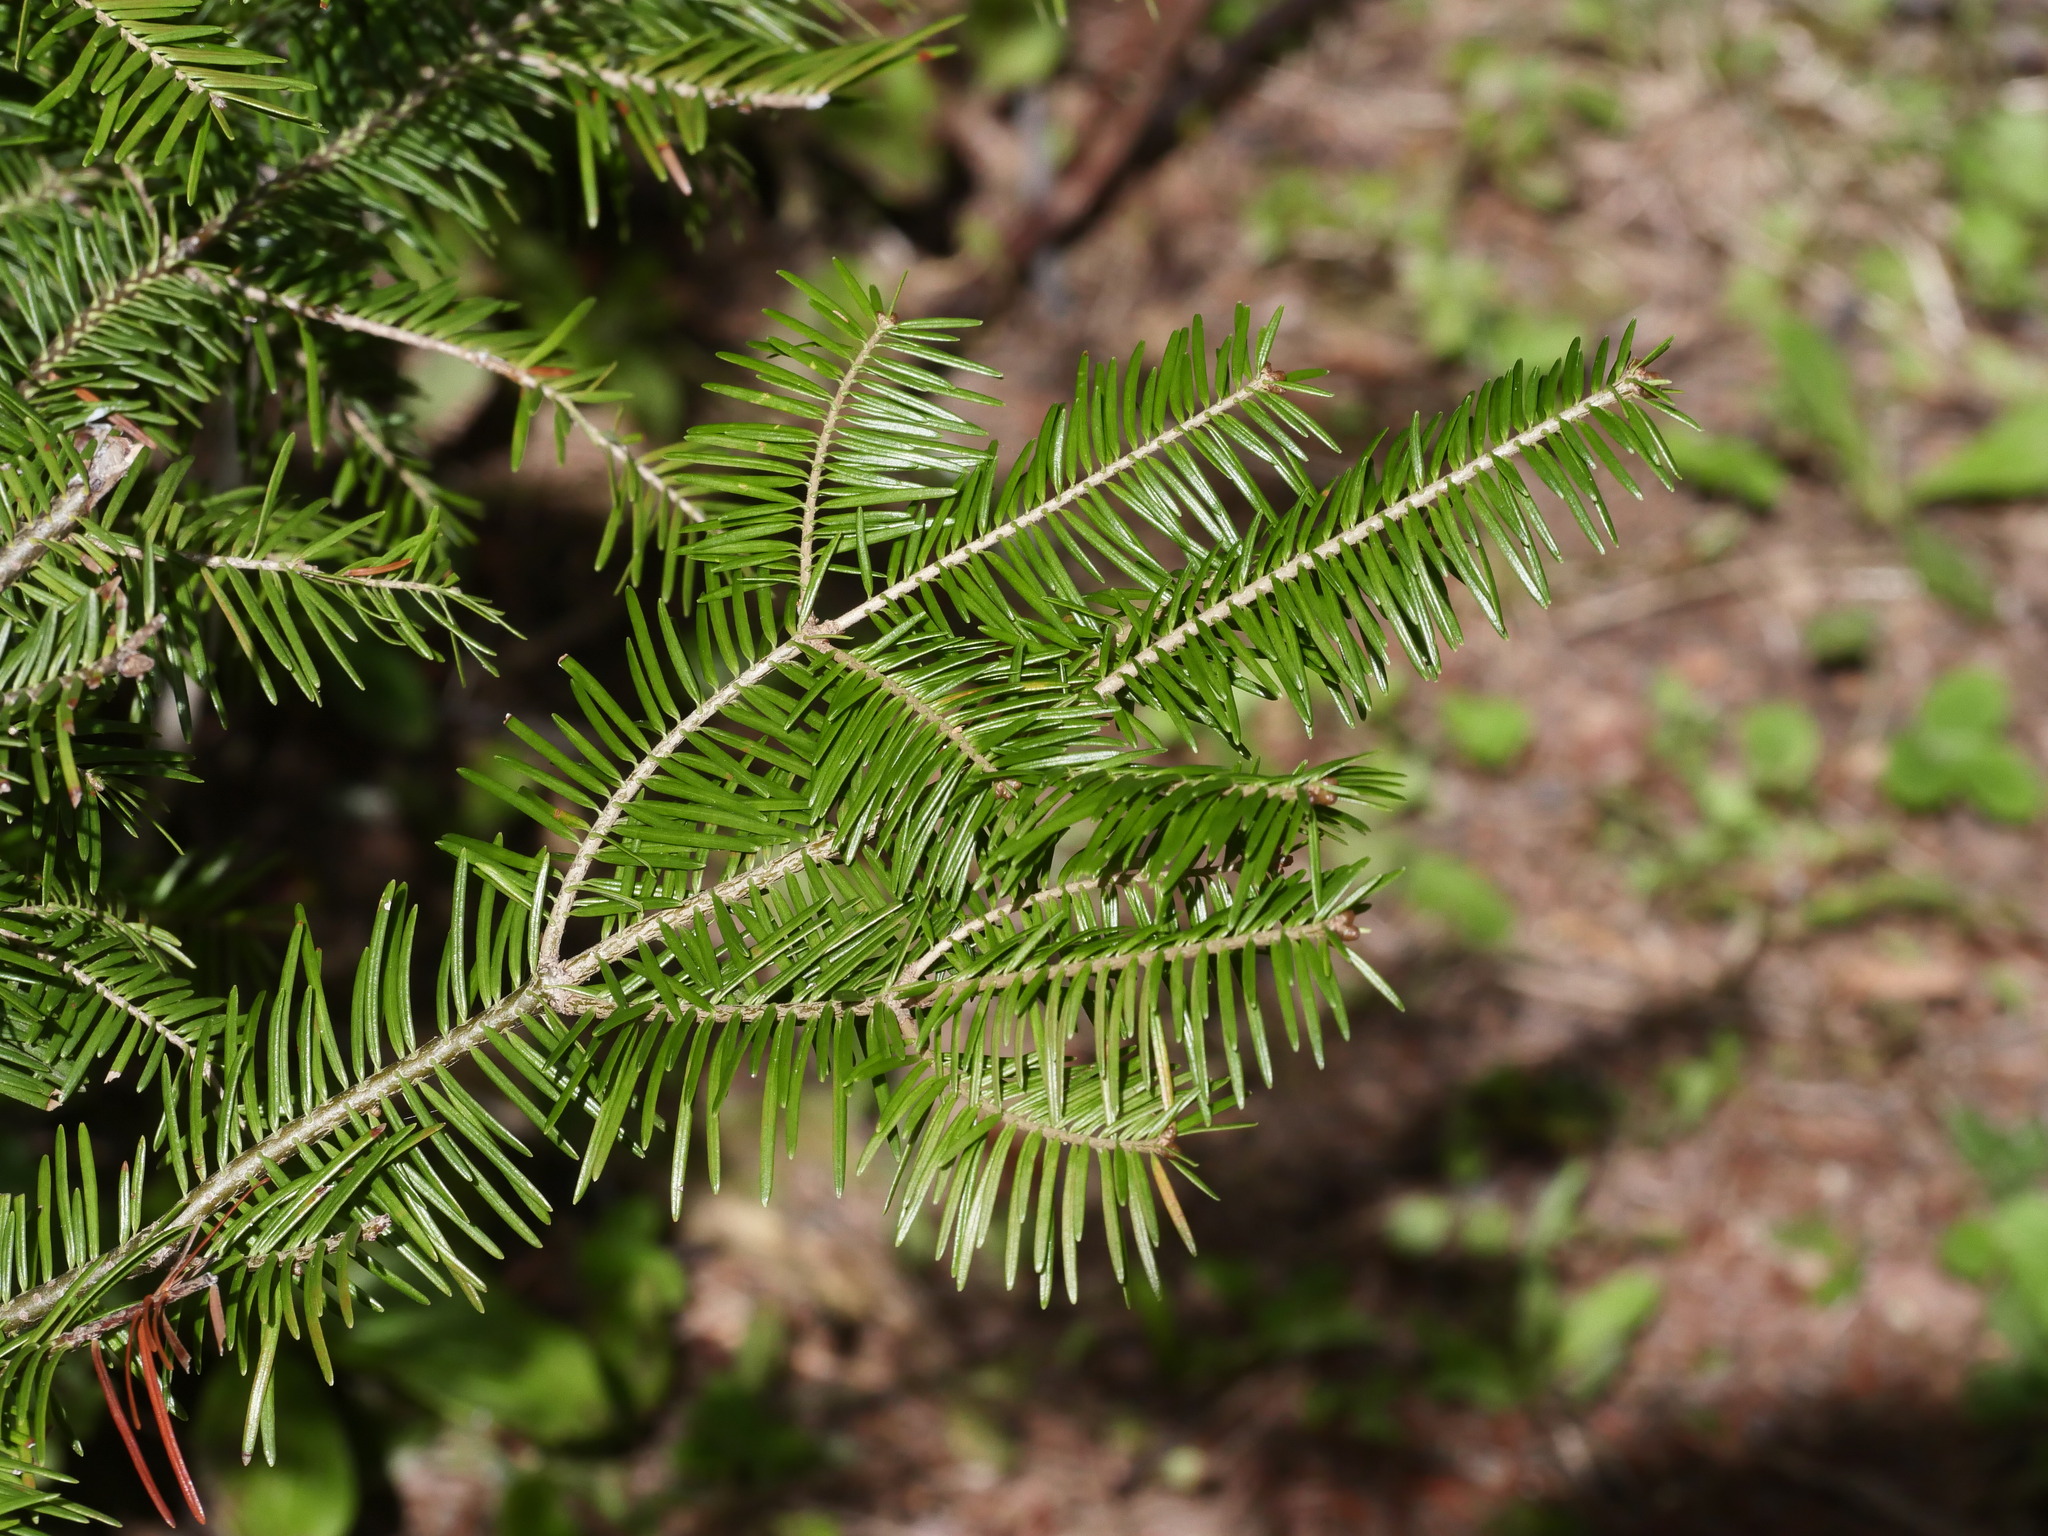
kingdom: Plantae
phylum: Tracheophyta
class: Pinopsida
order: Pinales
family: Pinaceae
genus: Abies
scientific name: Abies balsamea
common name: Balsam fir
